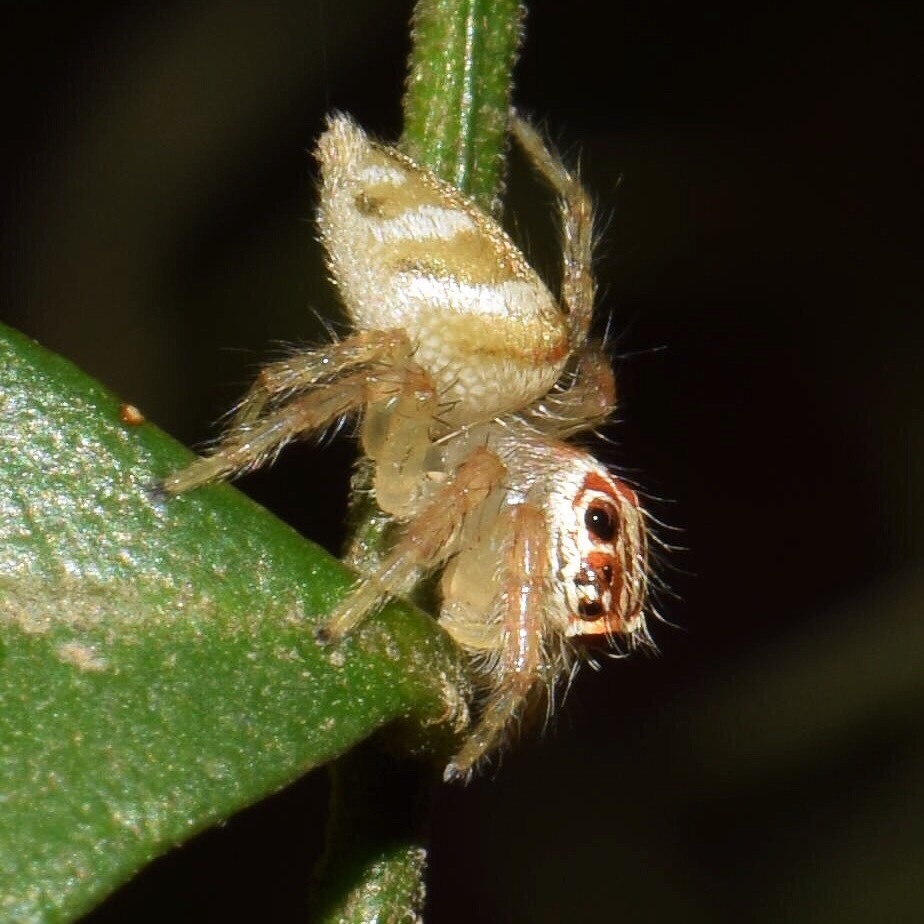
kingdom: Animalia
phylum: Arthropoda
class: Arachnida
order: Araneae
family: Salticidae
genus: Brancus
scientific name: Brancus mustelus
